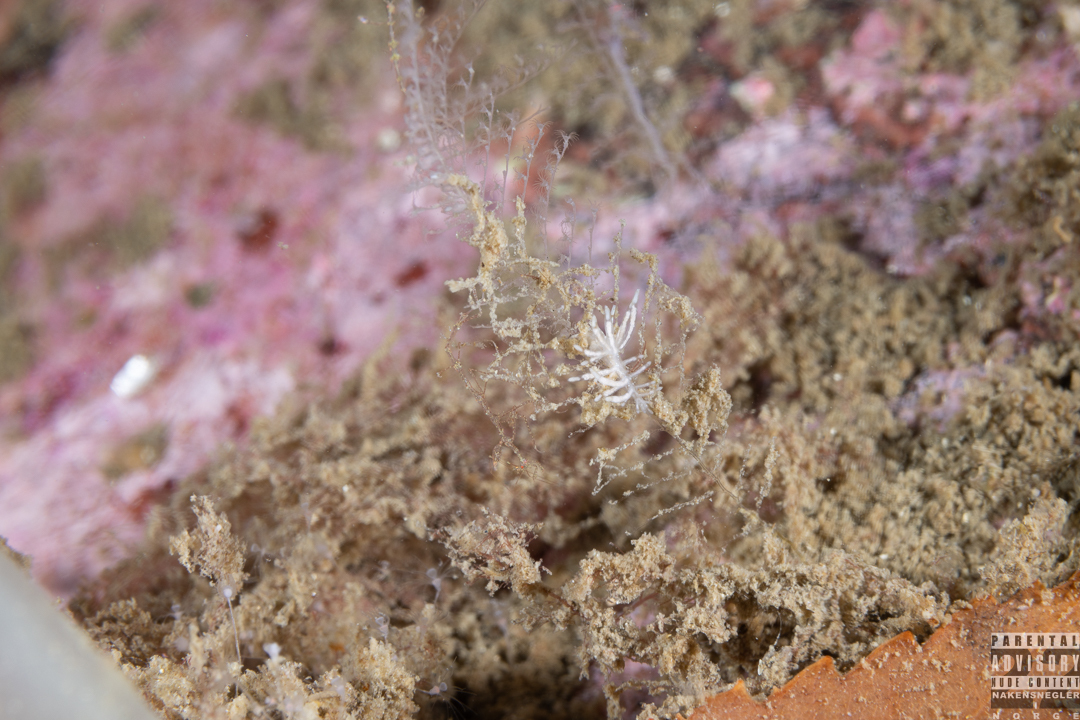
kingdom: Animalia
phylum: Mollusca
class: Gastropoda
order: Nudibranchia
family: Eubranchidae
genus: Eubranchus
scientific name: Eubranchus vittatus
